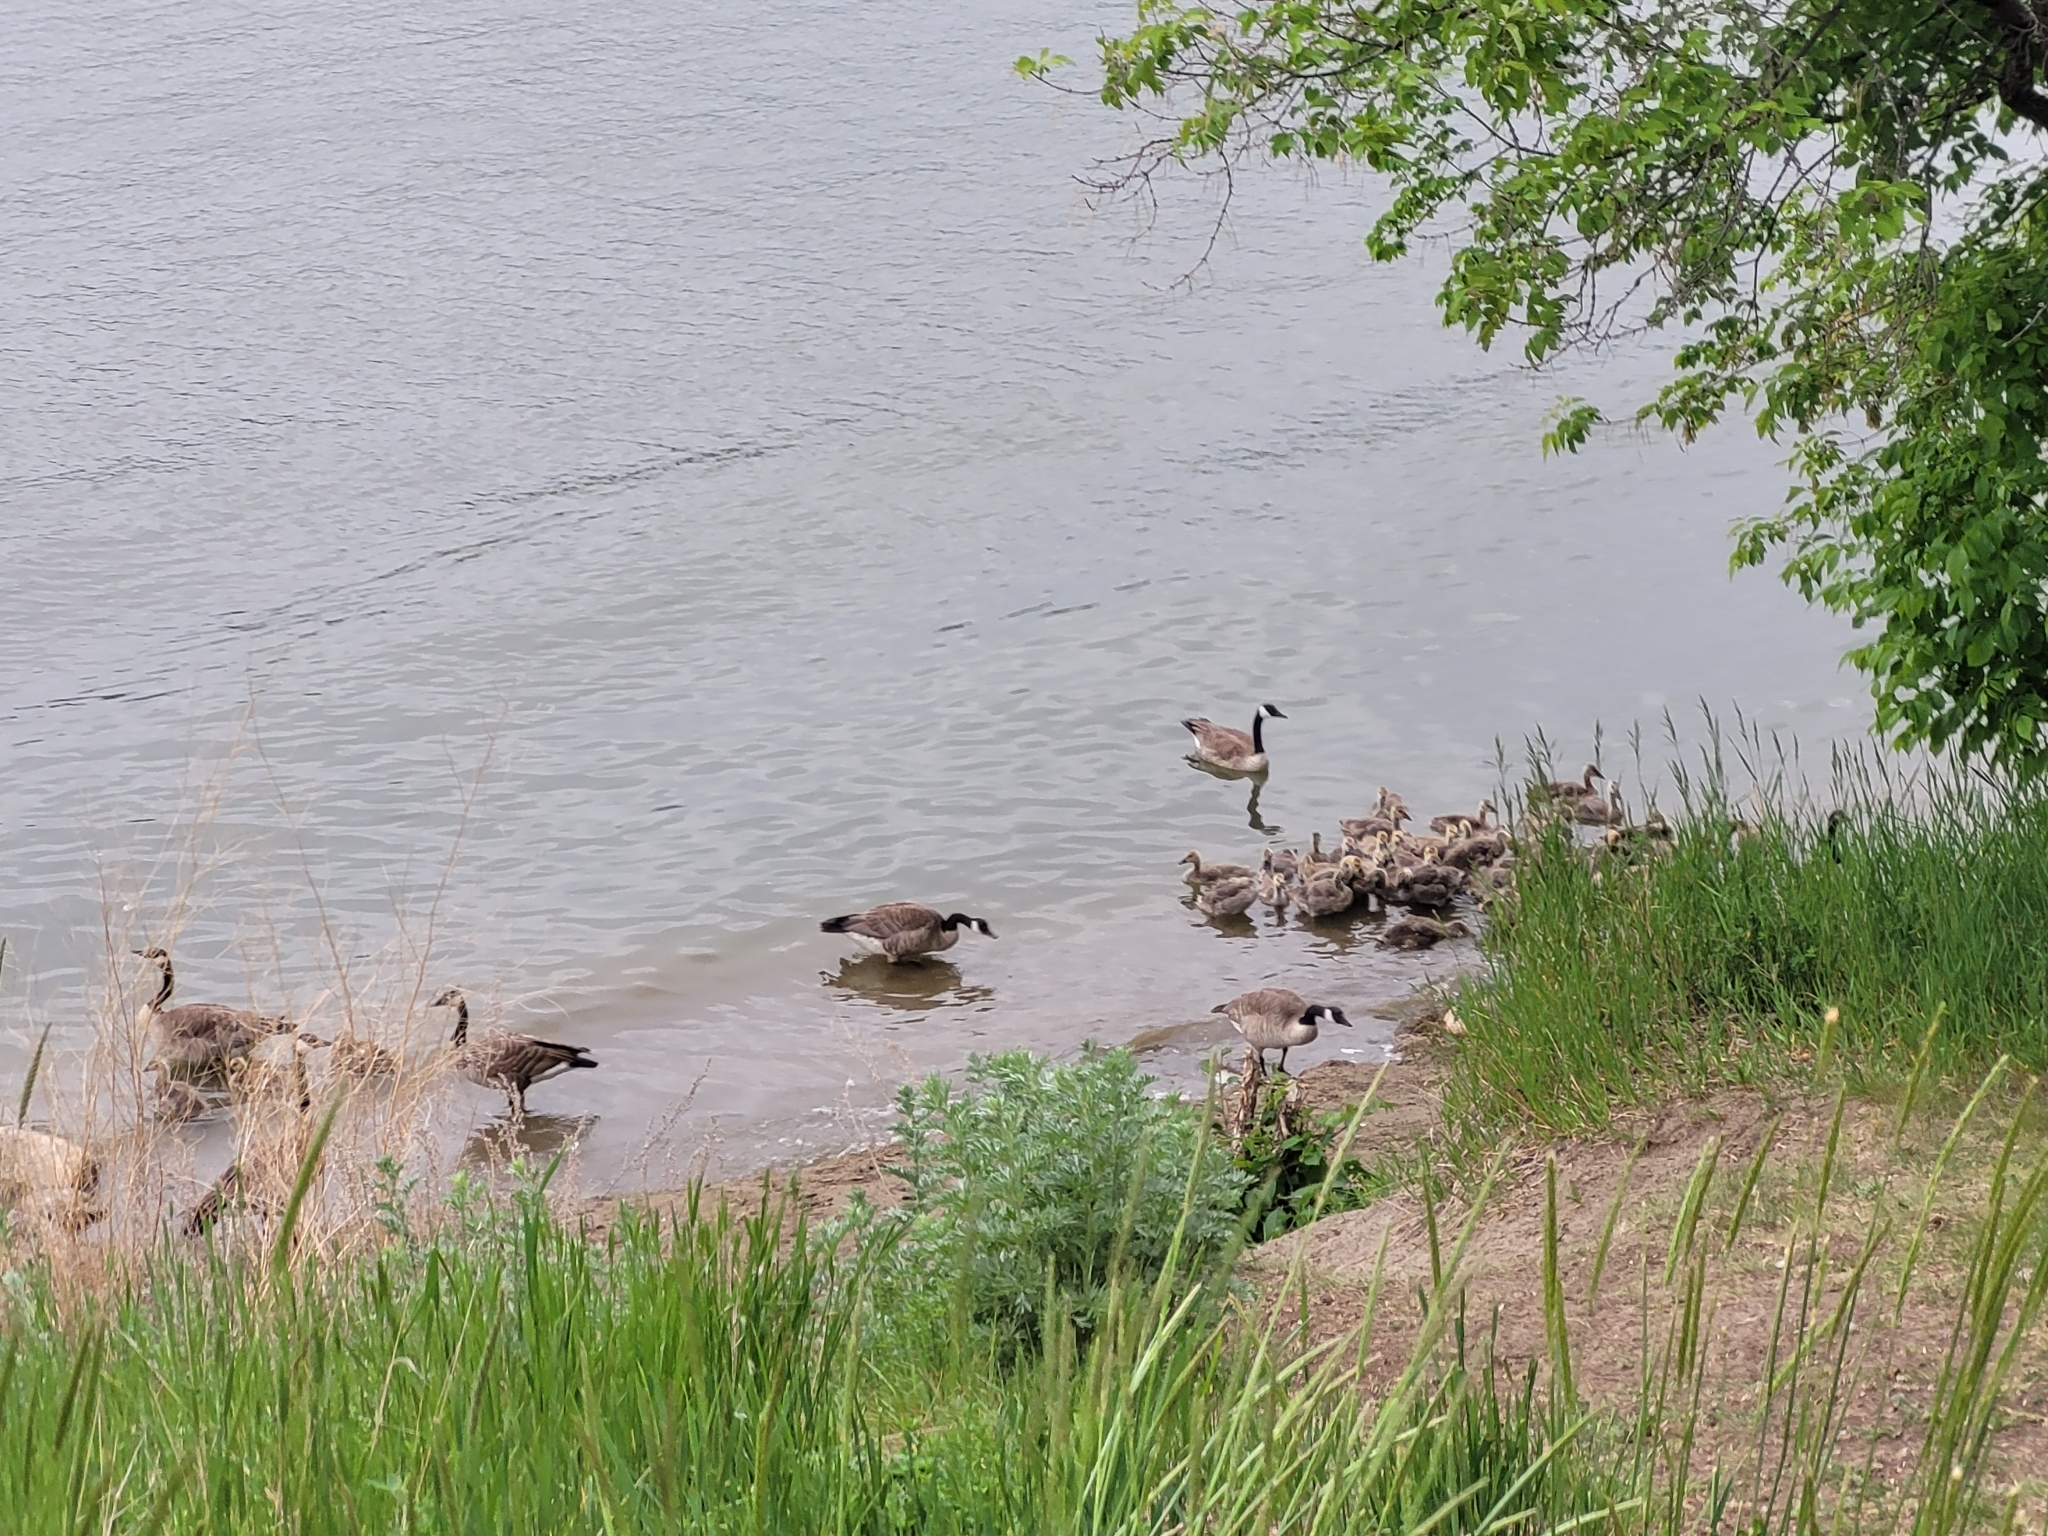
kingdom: Animalia
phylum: Chordata
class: Aves
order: Anseriformes
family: Anatidae
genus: Branta
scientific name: Branta canadensis
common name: Canada goose
